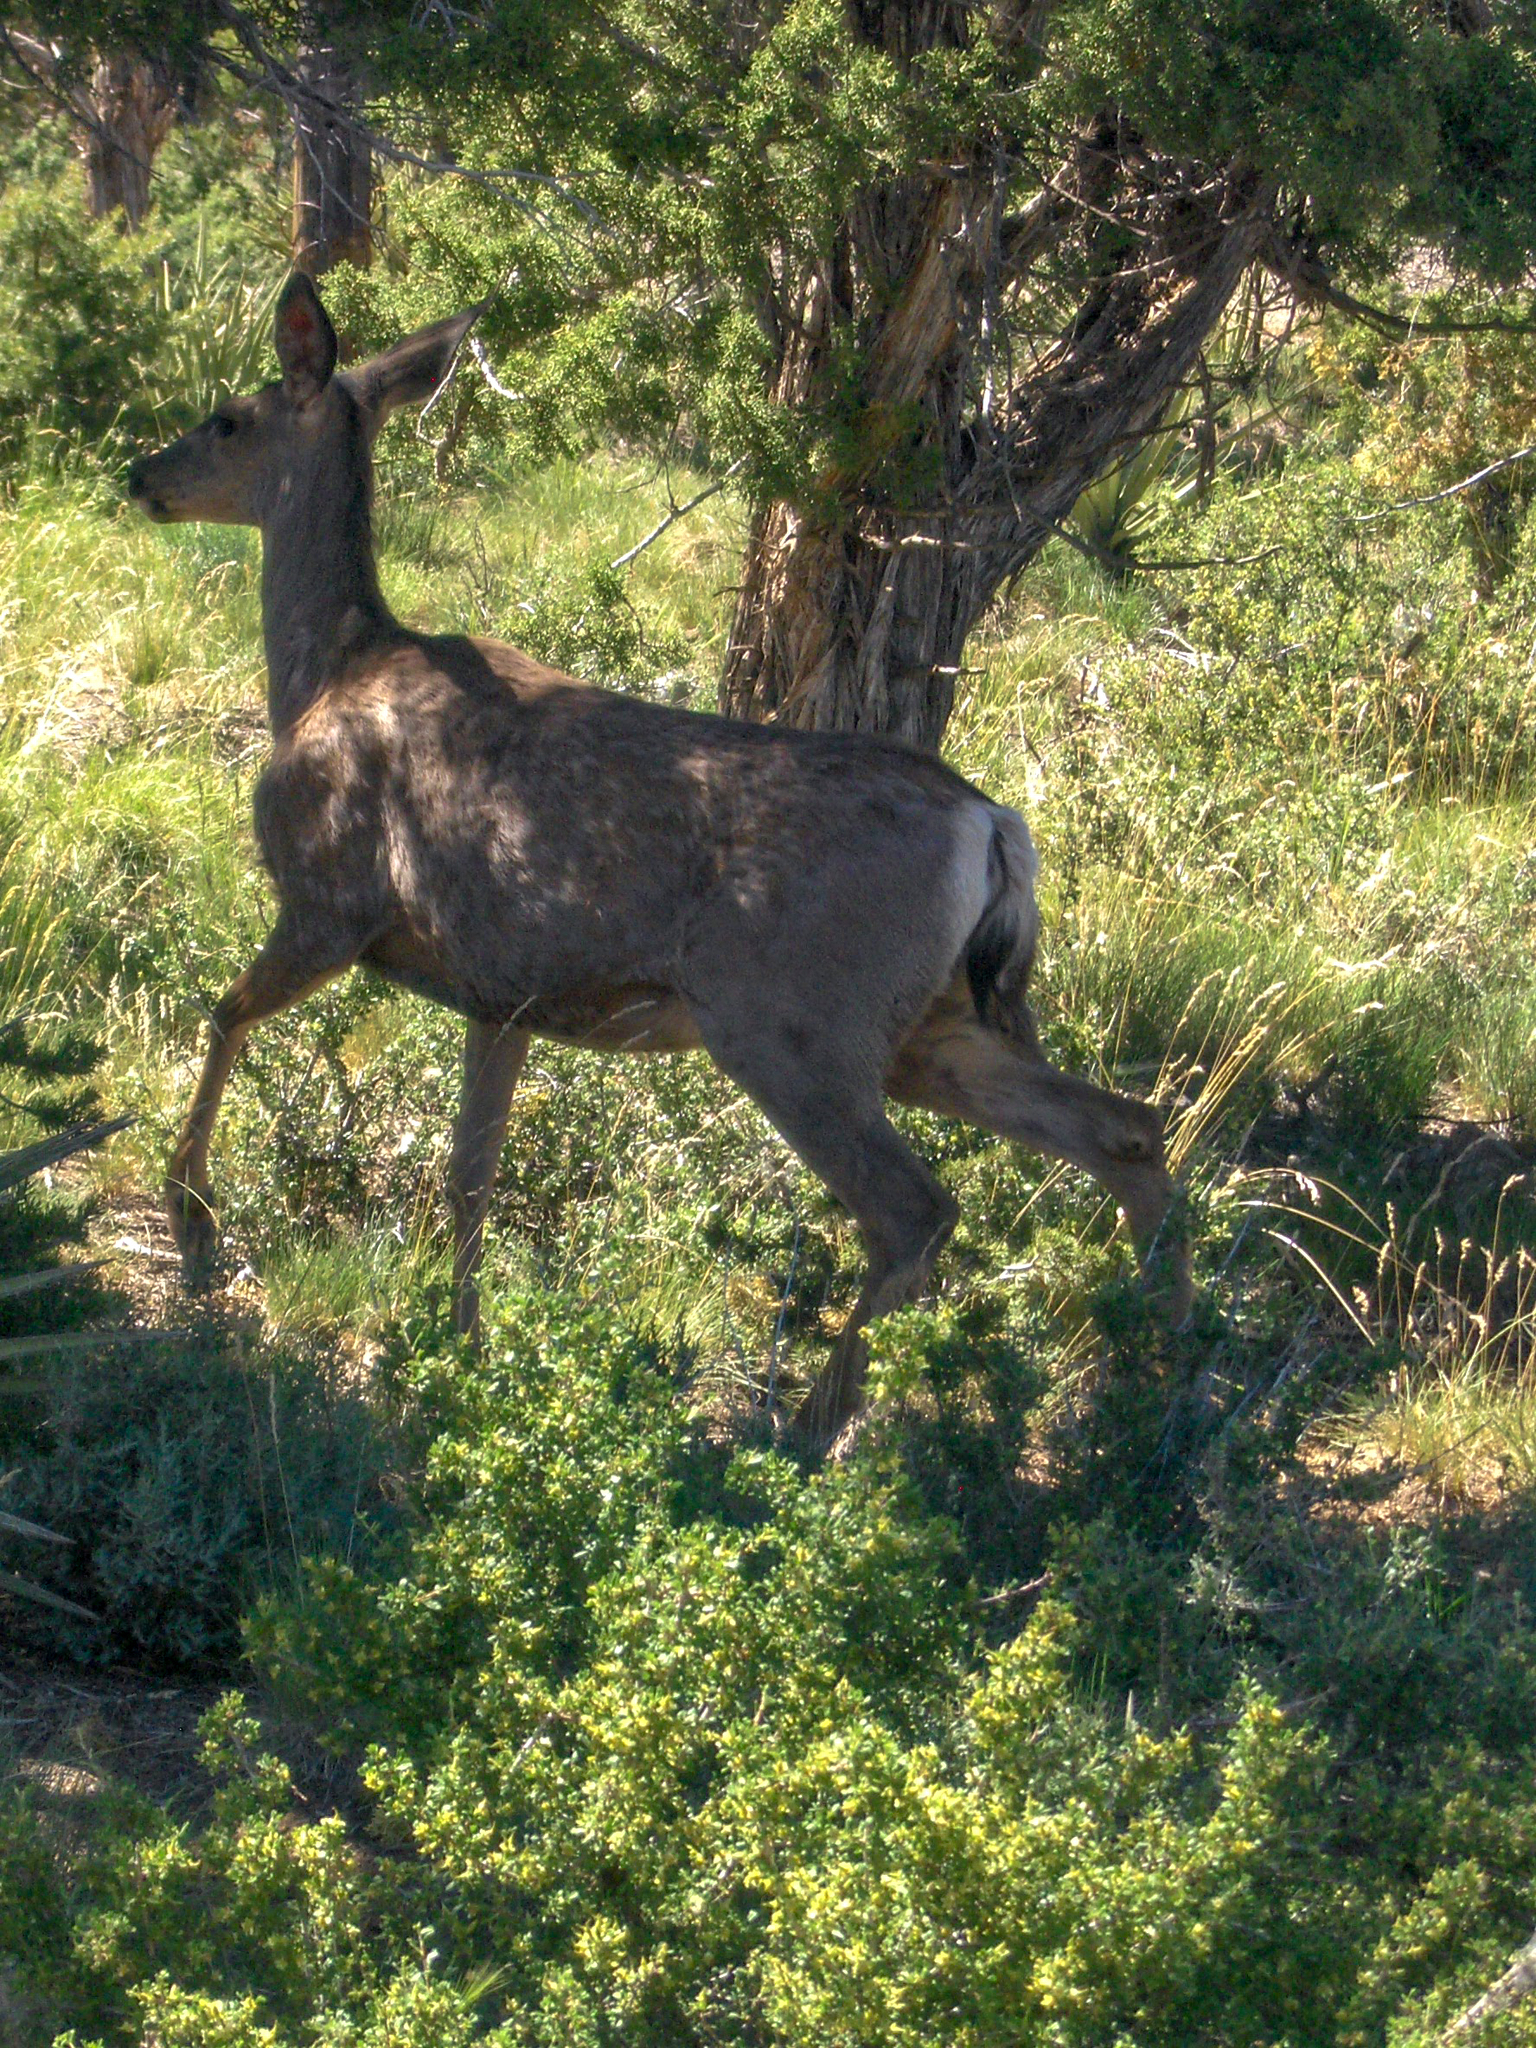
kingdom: Animalia
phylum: Chordata
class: Mammalia
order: Artiodactyla
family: Cervidae
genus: Odocoileus
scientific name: Odocoileus hemionus
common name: Mule deer
